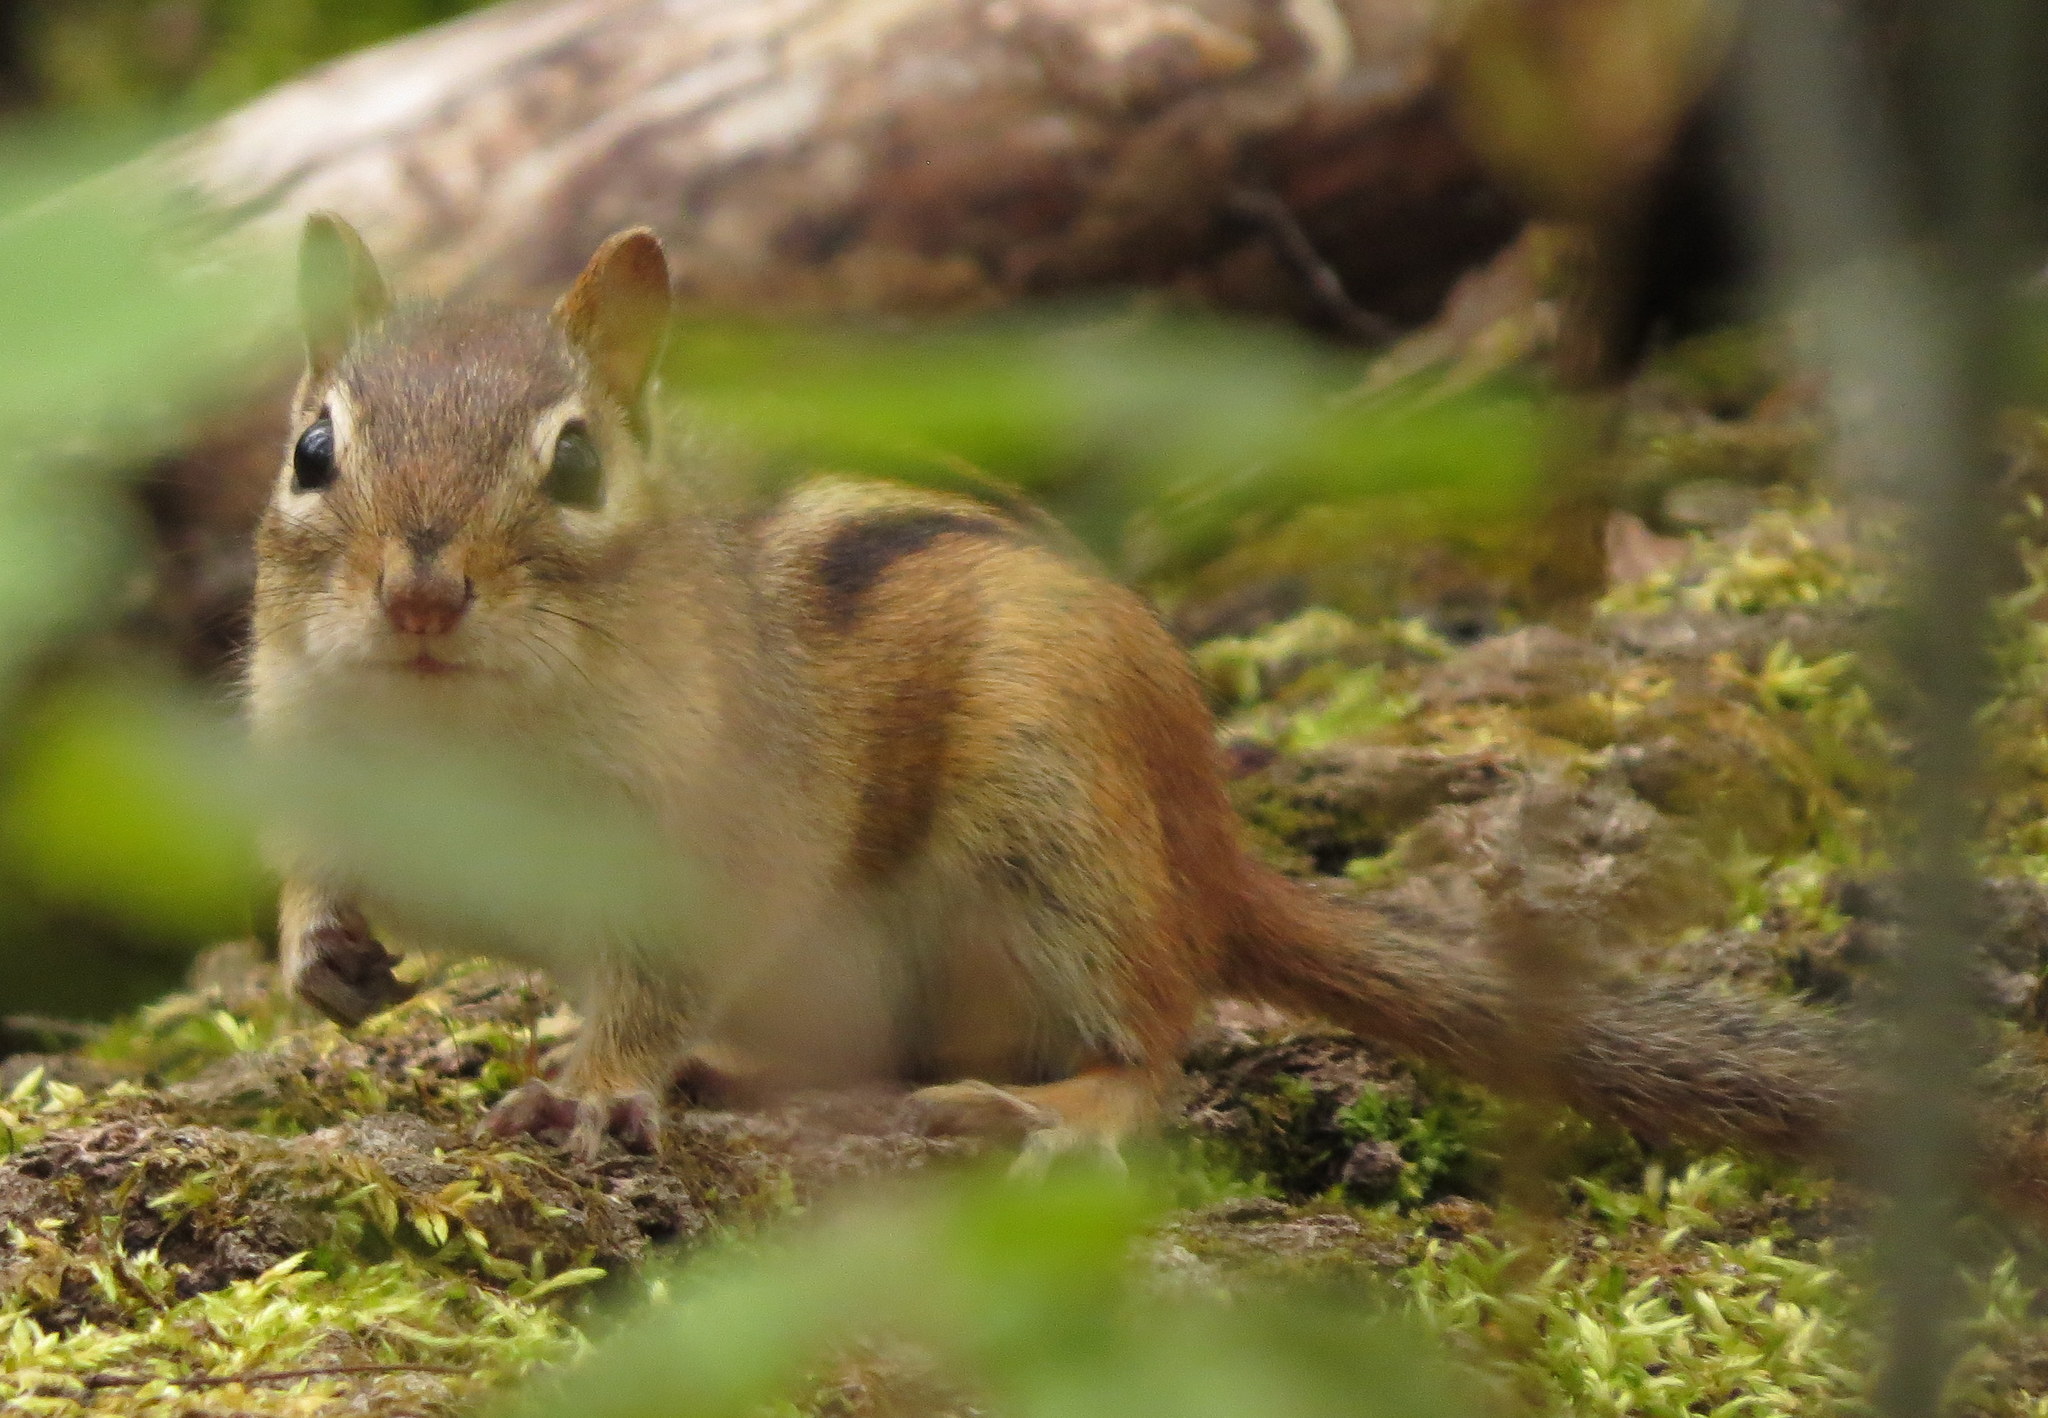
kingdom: Animalia
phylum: Chordata
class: Mammalia
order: Rodentia
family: Sciuridae
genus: Tamias
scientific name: Tamias striatus
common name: Eastern chipmunk
